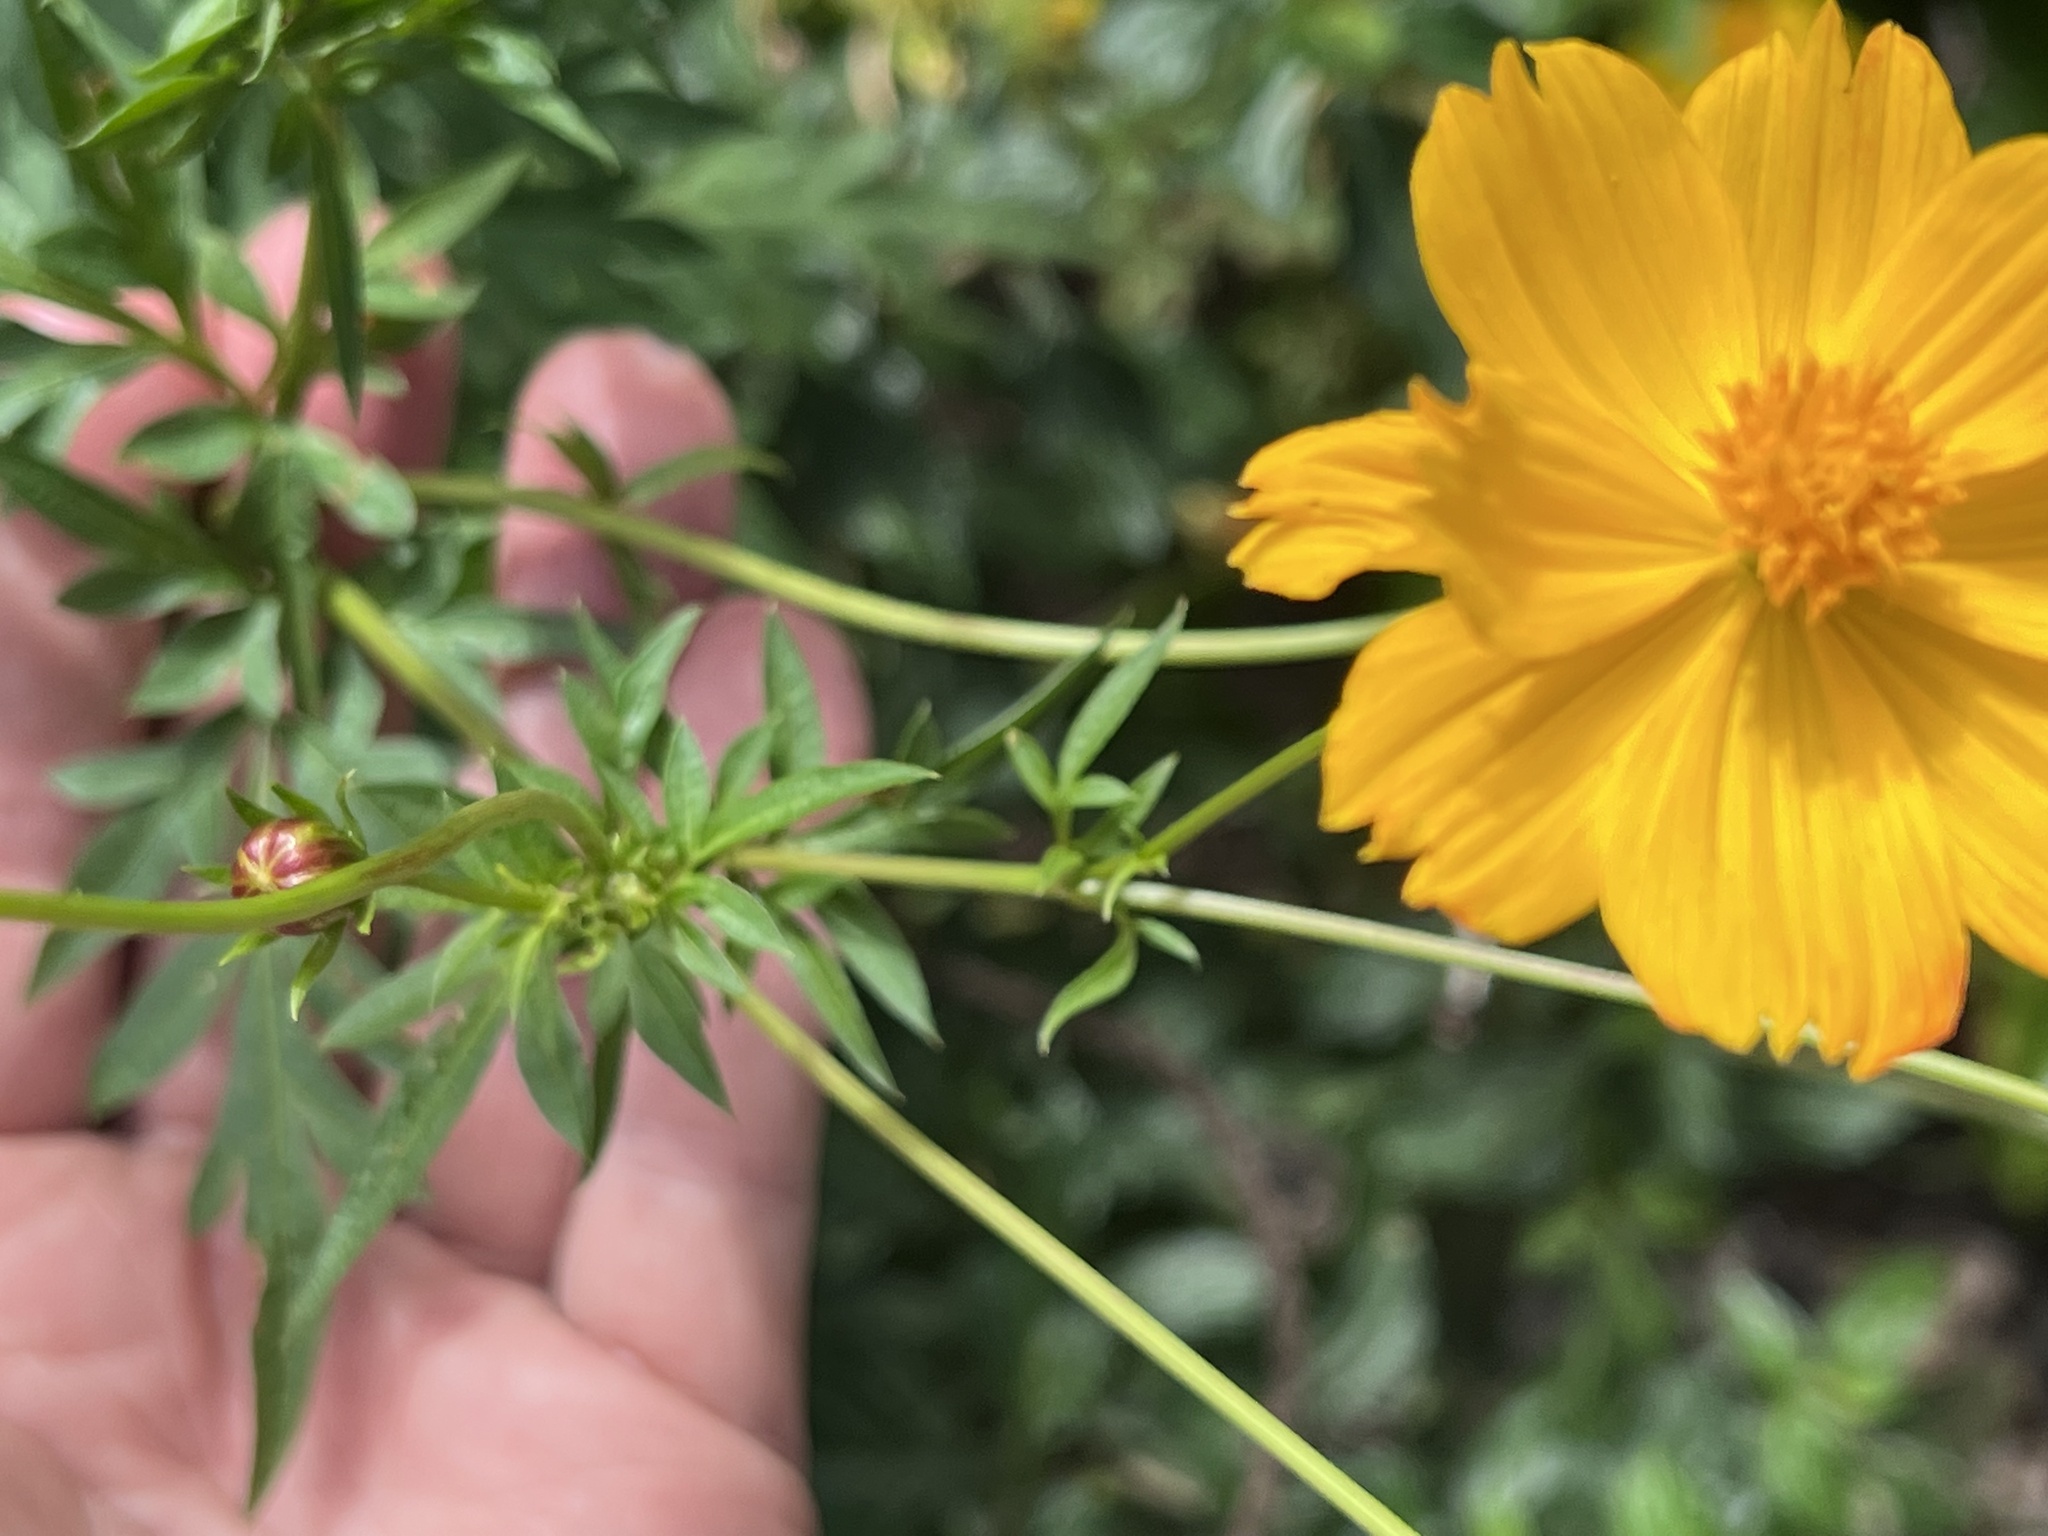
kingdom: Plantae
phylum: Tracheophyta
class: Magnoliopsida
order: Asterales
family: Asteraceae
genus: Cosmos
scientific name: Cosmos sulphureus
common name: Sulphur cosmos
